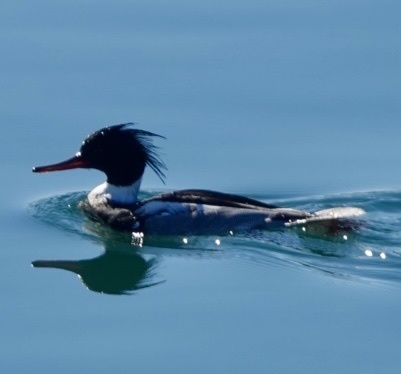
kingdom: Animalia
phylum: Chordata
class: Aves
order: Anseriformes
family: Anatidae
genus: Mergus
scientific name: Mergus serrator
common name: Red-breasted merganser
